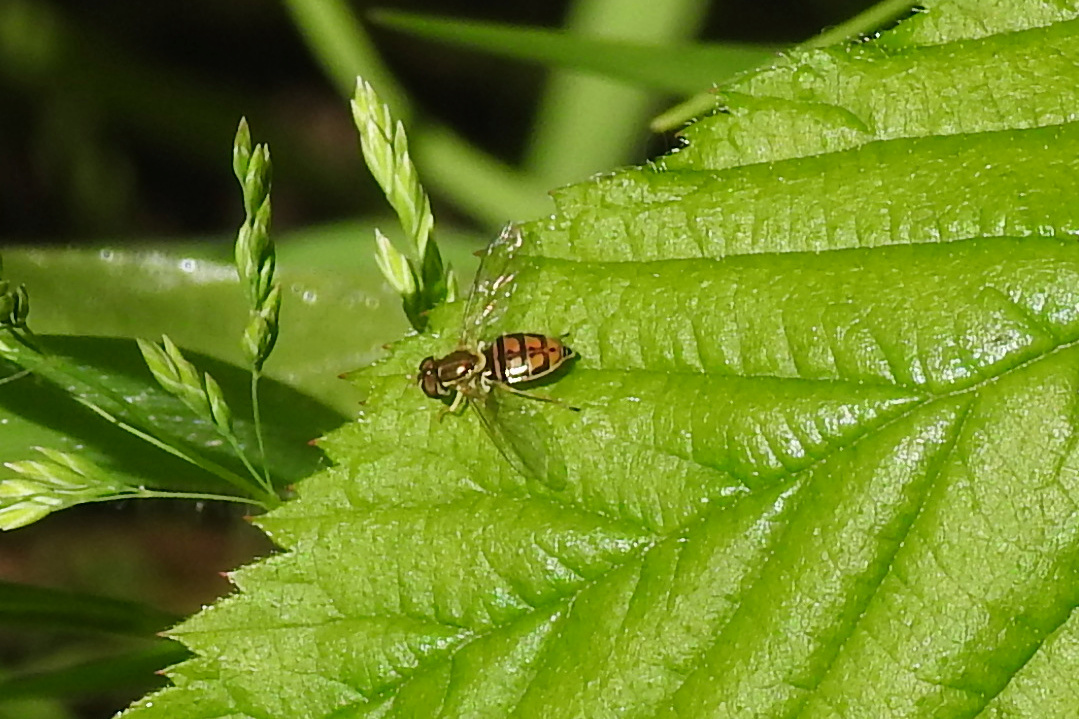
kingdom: Animalia
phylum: Arthropoda
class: Insecta
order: Diptera
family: Syrphidae
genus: Toxomerus
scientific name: Toxomerus marginatus
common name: Syrphid fly
